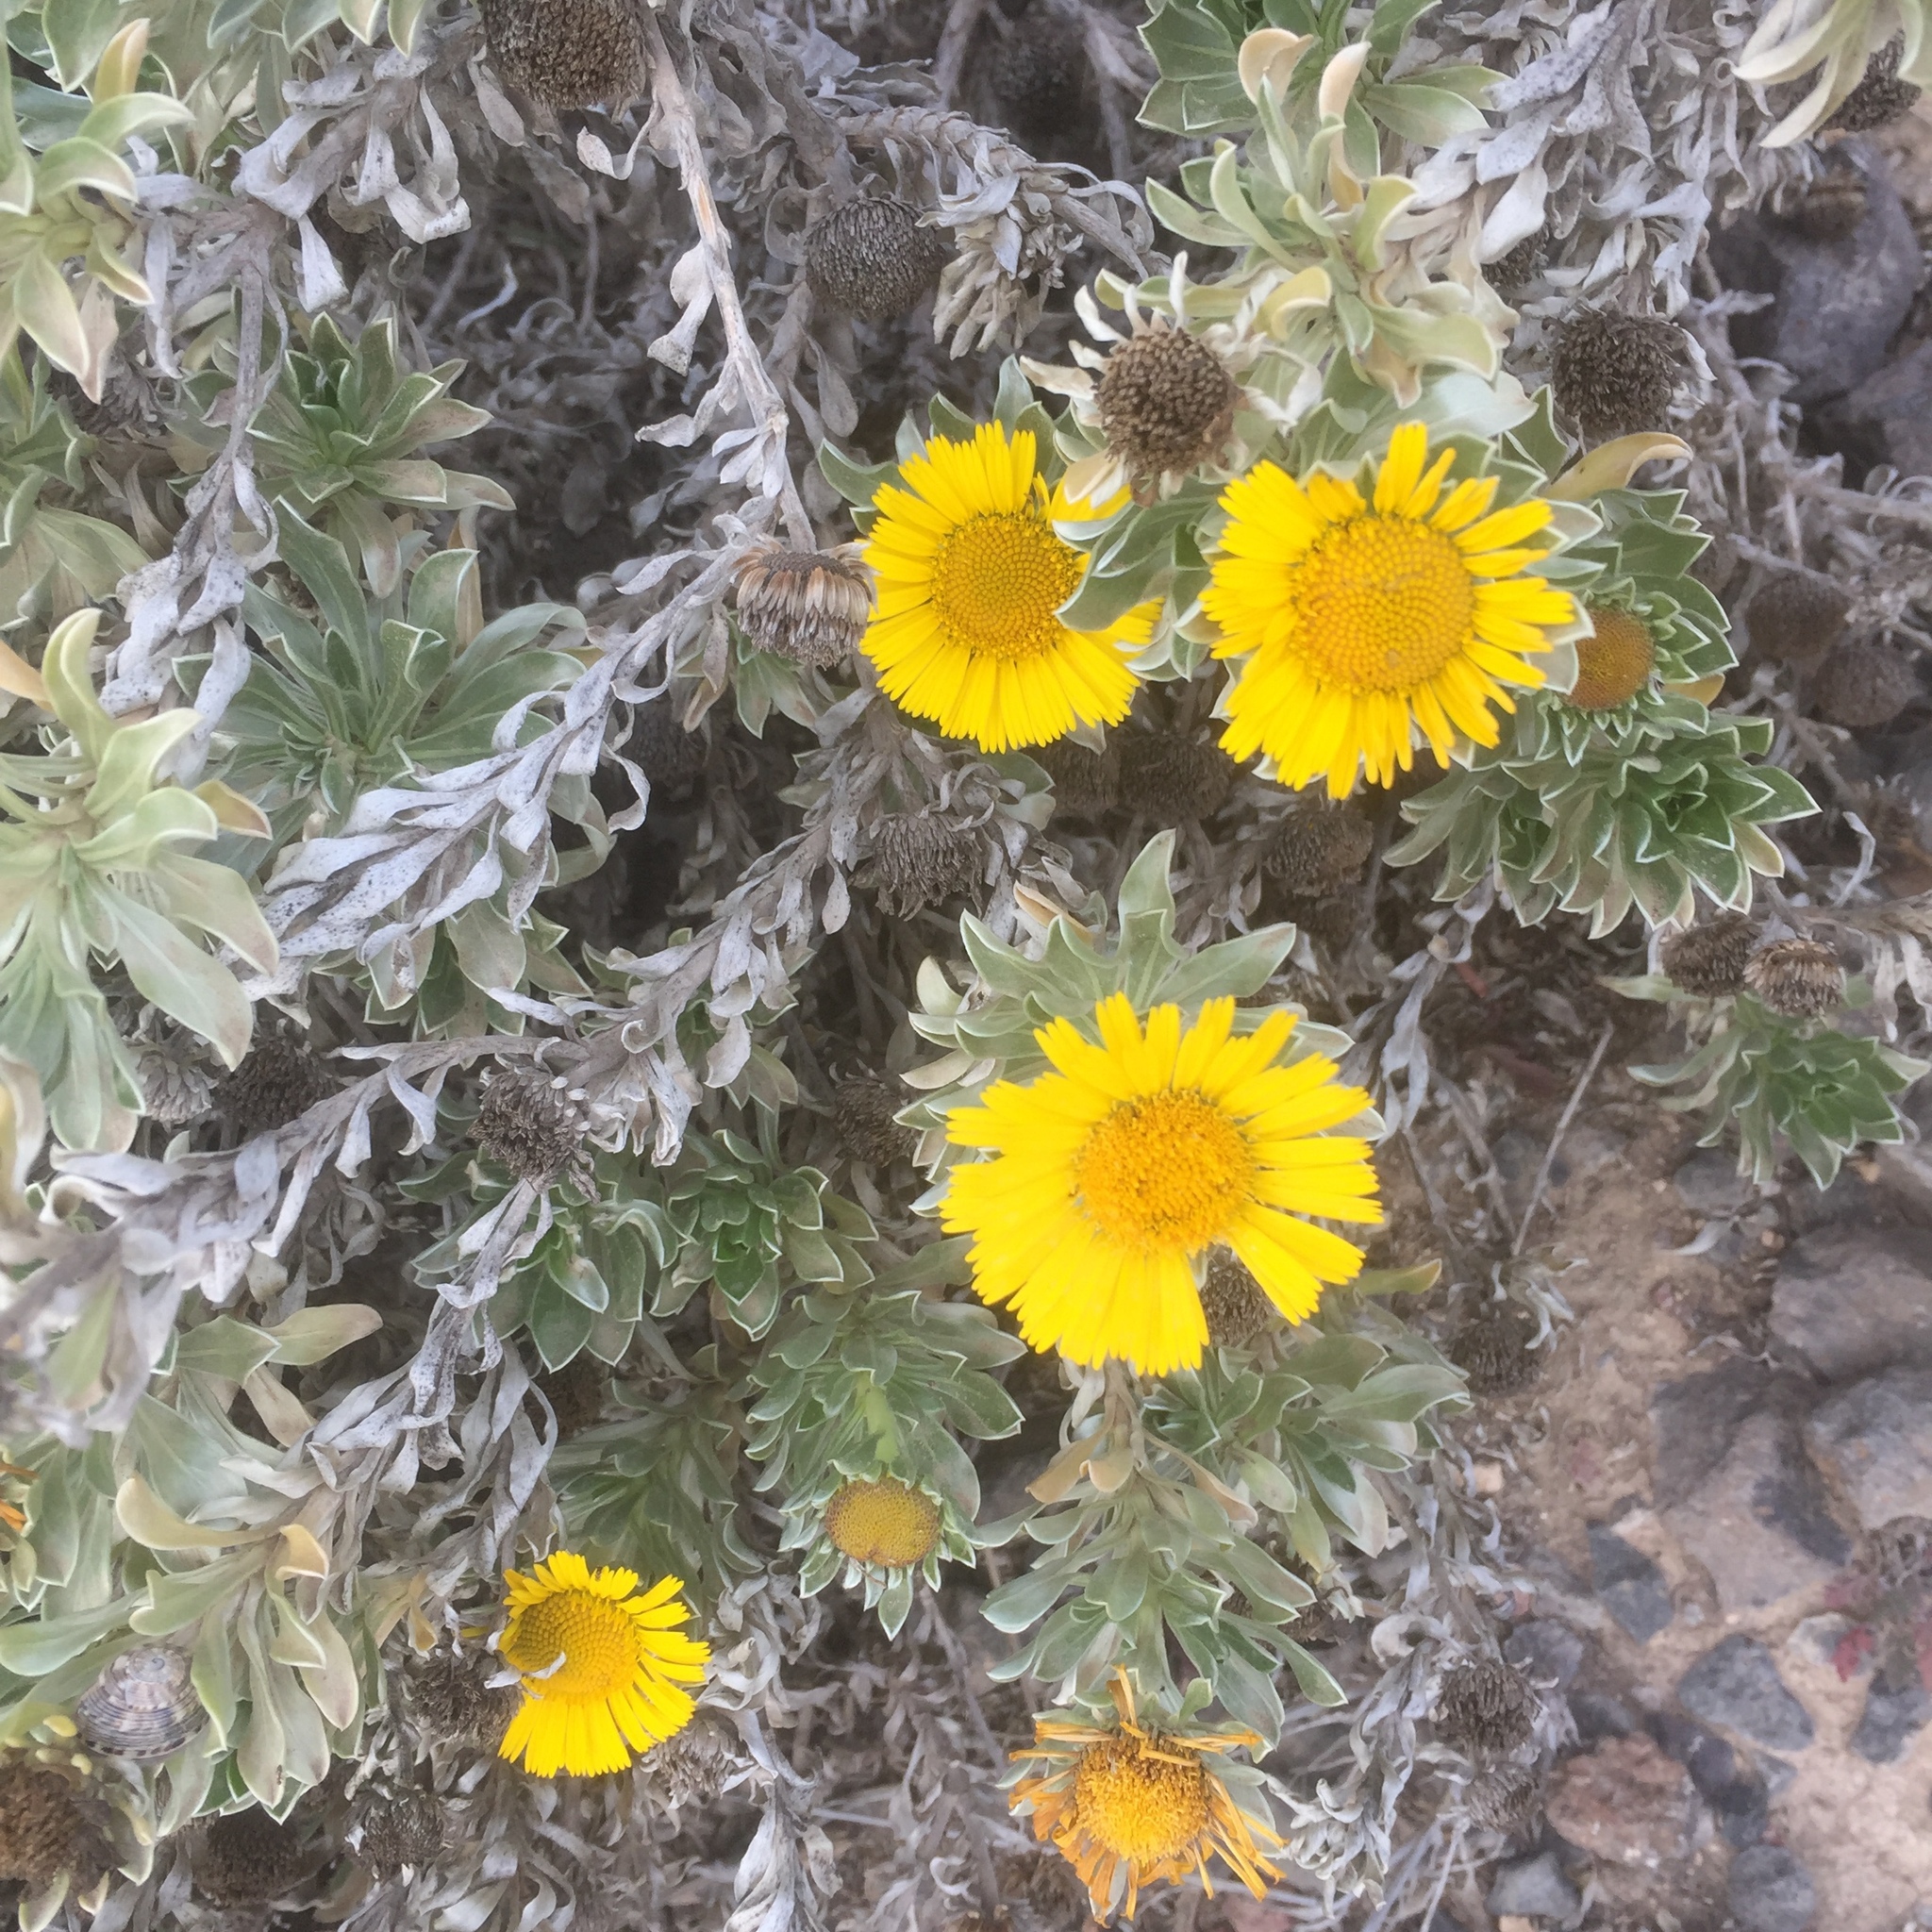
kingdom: Plantae
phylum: Tracheophyta
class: Magnoliopsida
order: Asterales
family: Asteraceae
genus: Asteriscus
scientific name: Asteriscus intermedius
